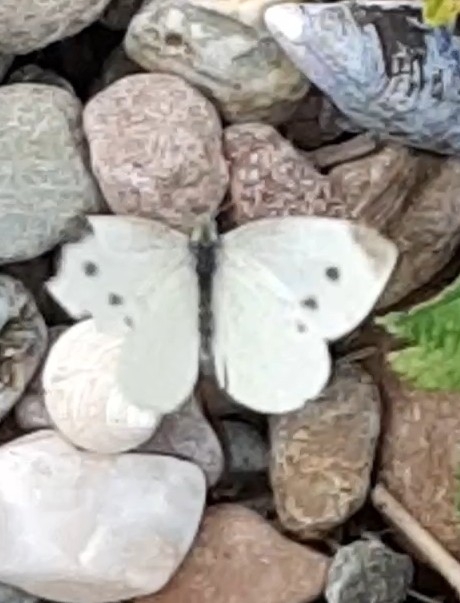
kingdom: Animalia
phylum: Arthropoda
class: Insecta
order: Lepidoptera
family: Pieridae
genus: Pieris
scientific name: Pieris rapae
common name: Small white
